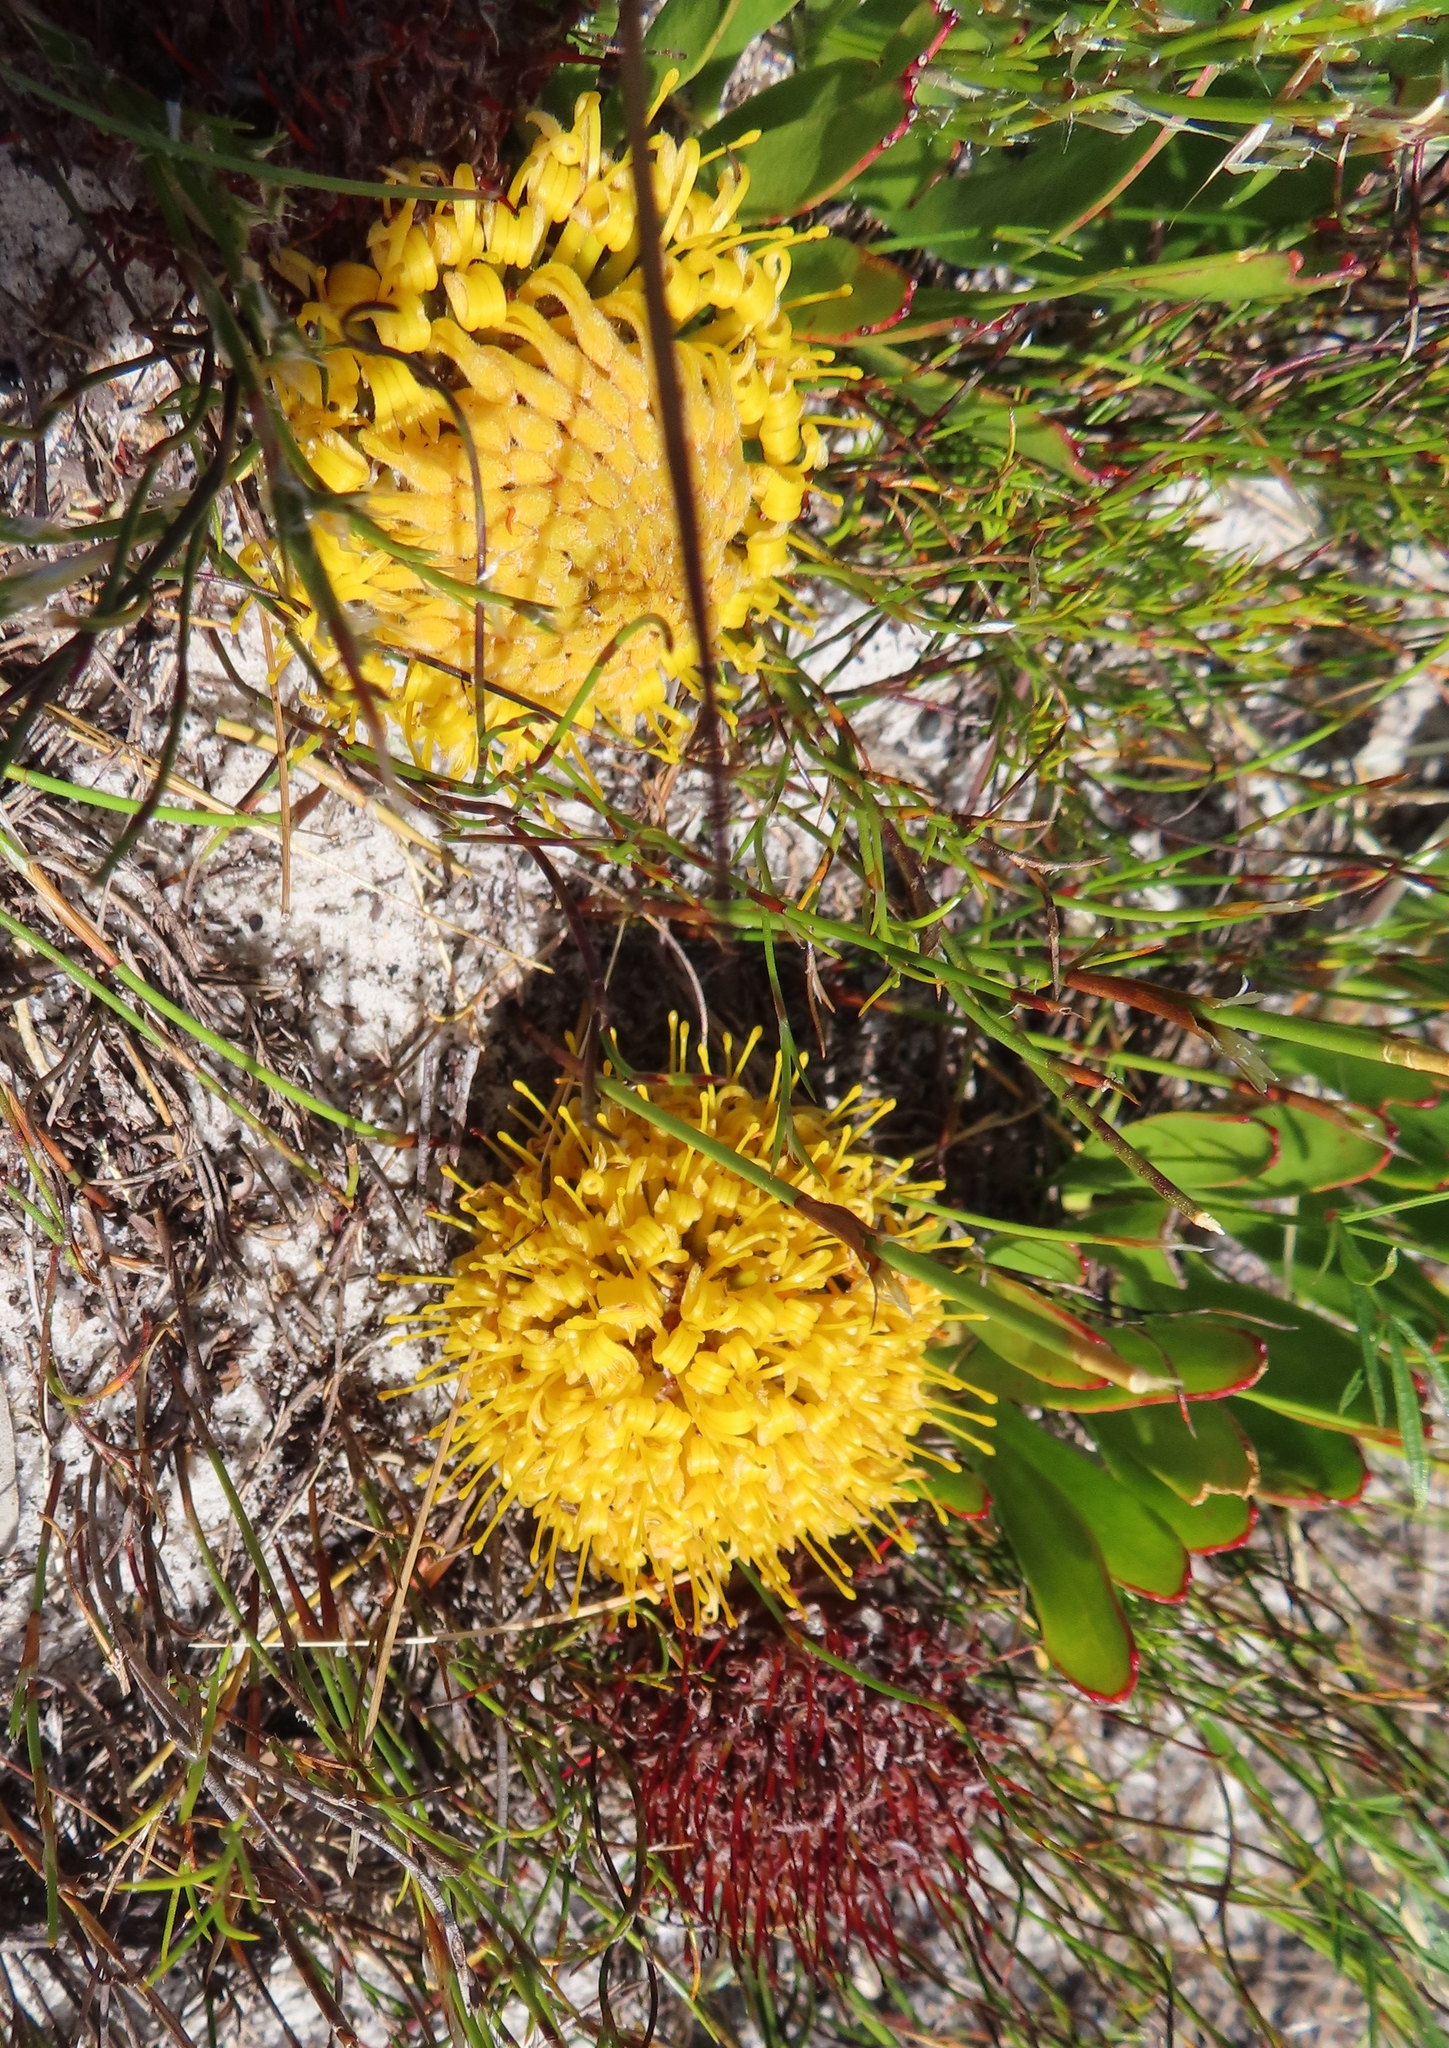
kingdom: Plantae
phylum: Tracheophyta
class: Magnoliopsida
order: Proteales
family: Proteaceae
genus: Leucospermum
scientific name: Leucospermum hypophyllocarpodendron
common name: Snakestem pincushion
